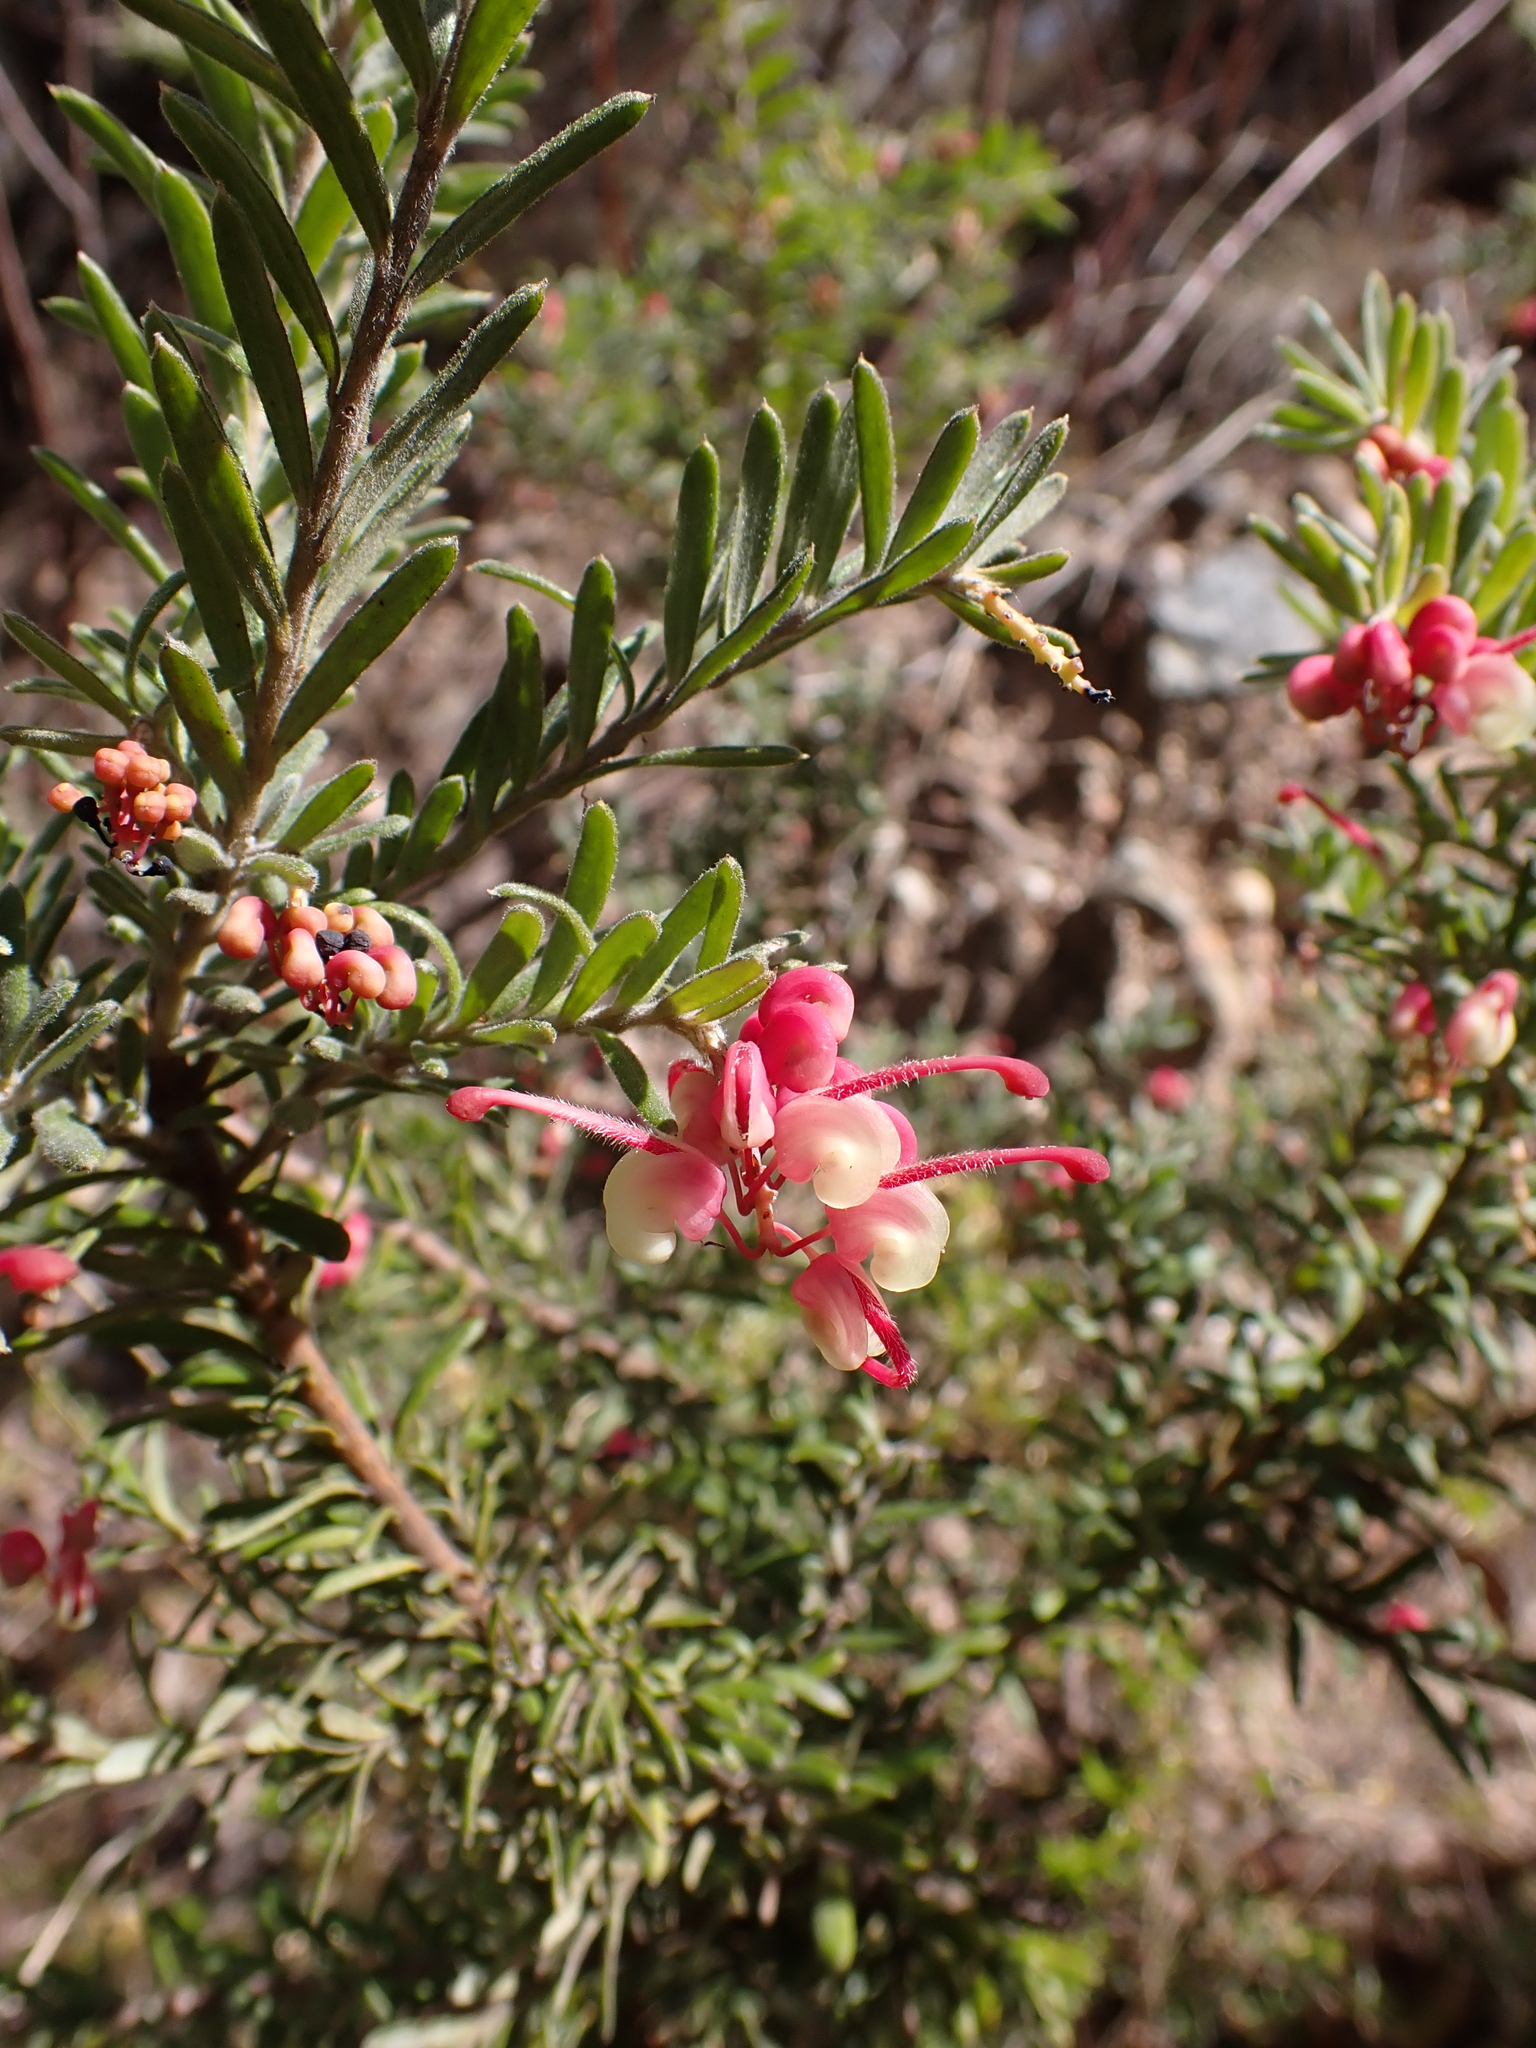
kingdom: Plantae
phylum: Tracheophyta
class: Magnoliopsida
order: Proteales
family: Proteaceae
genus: Grevillea
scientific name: Grevillea lanigera
